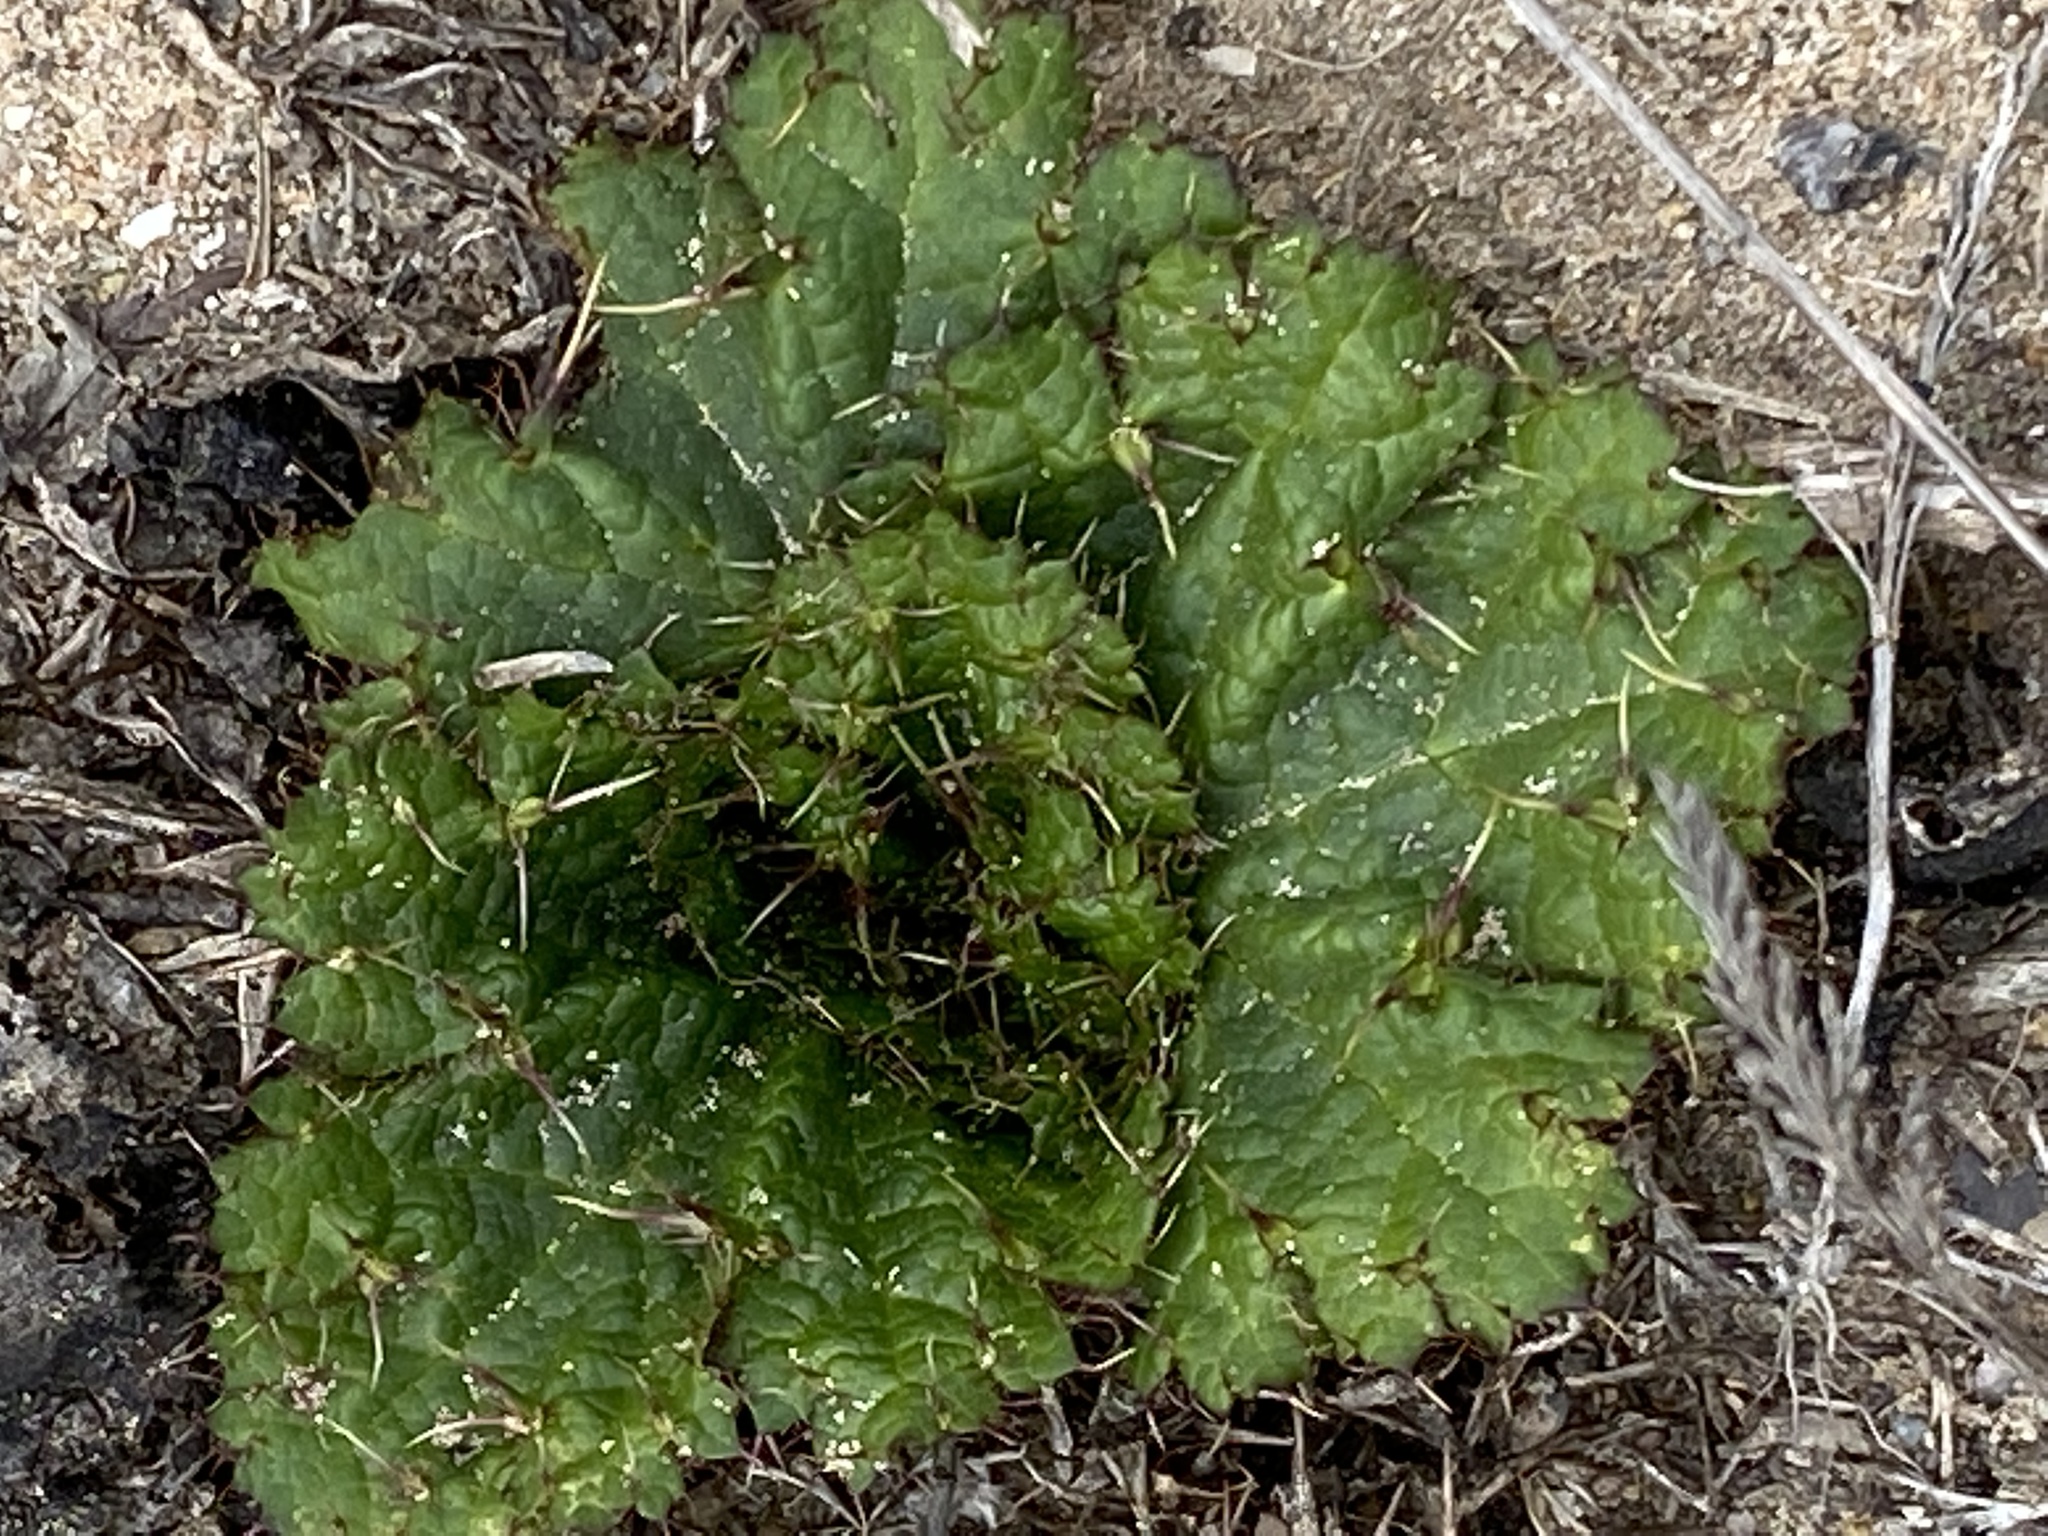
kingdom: Plantae
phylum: Tracheophyta
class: Magnoliopsida
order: Apiales
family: Apiaceae
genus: Arctopus
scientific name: Arctopus echinatus
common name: Platdoring
